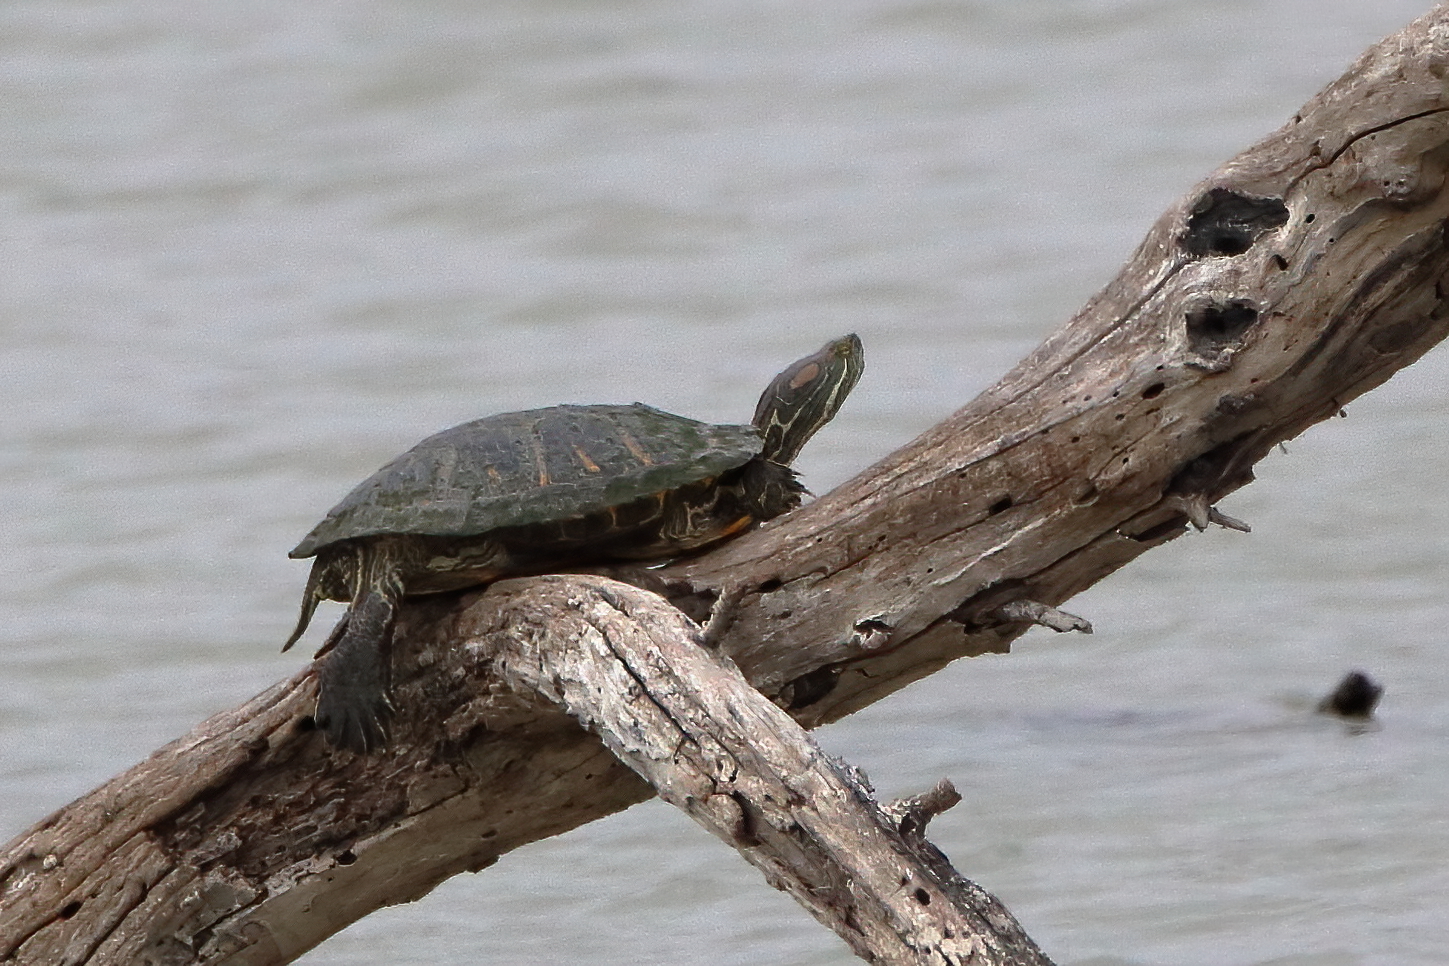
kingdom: Animalia
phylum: Chordata
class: Testudines
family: Emydidae
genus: Trachemys
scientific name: Trachemys scripta
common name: Slider
